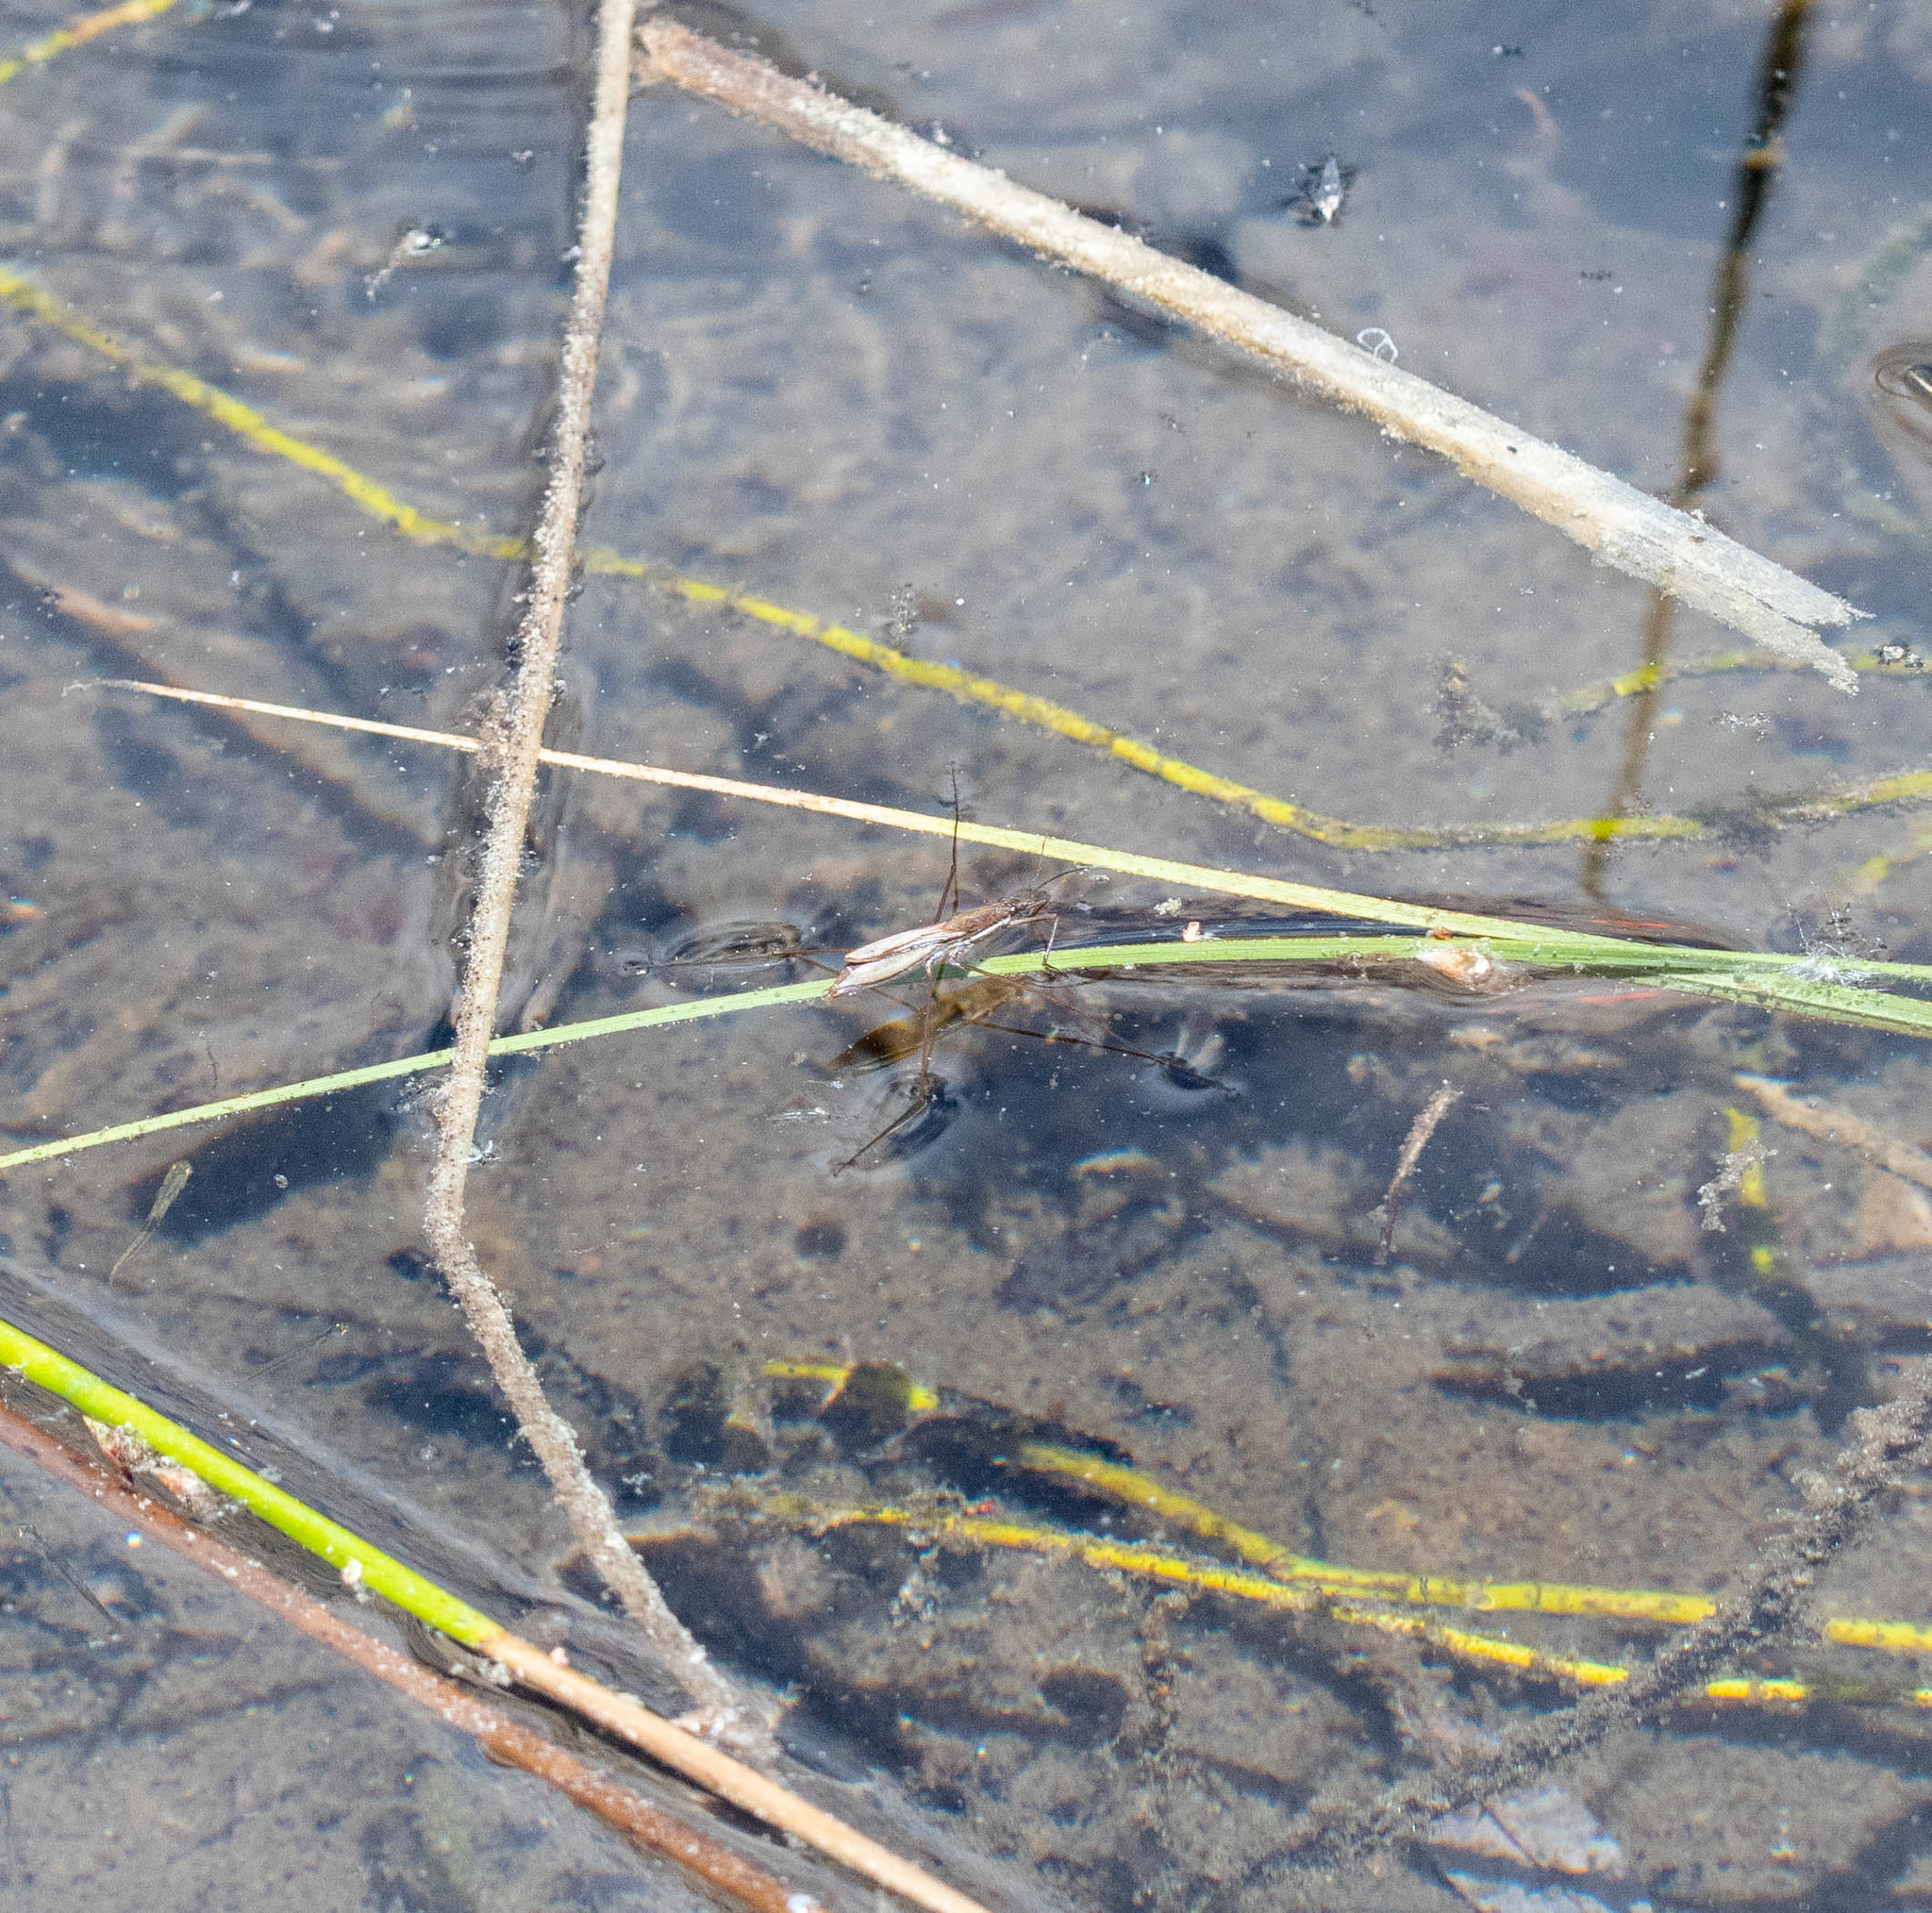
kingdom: Animalia
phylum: Arthropoda
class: Insecta
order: Hemiptera
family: Gerridae
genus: Limnoporus
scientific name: Limnoporus notabilis
